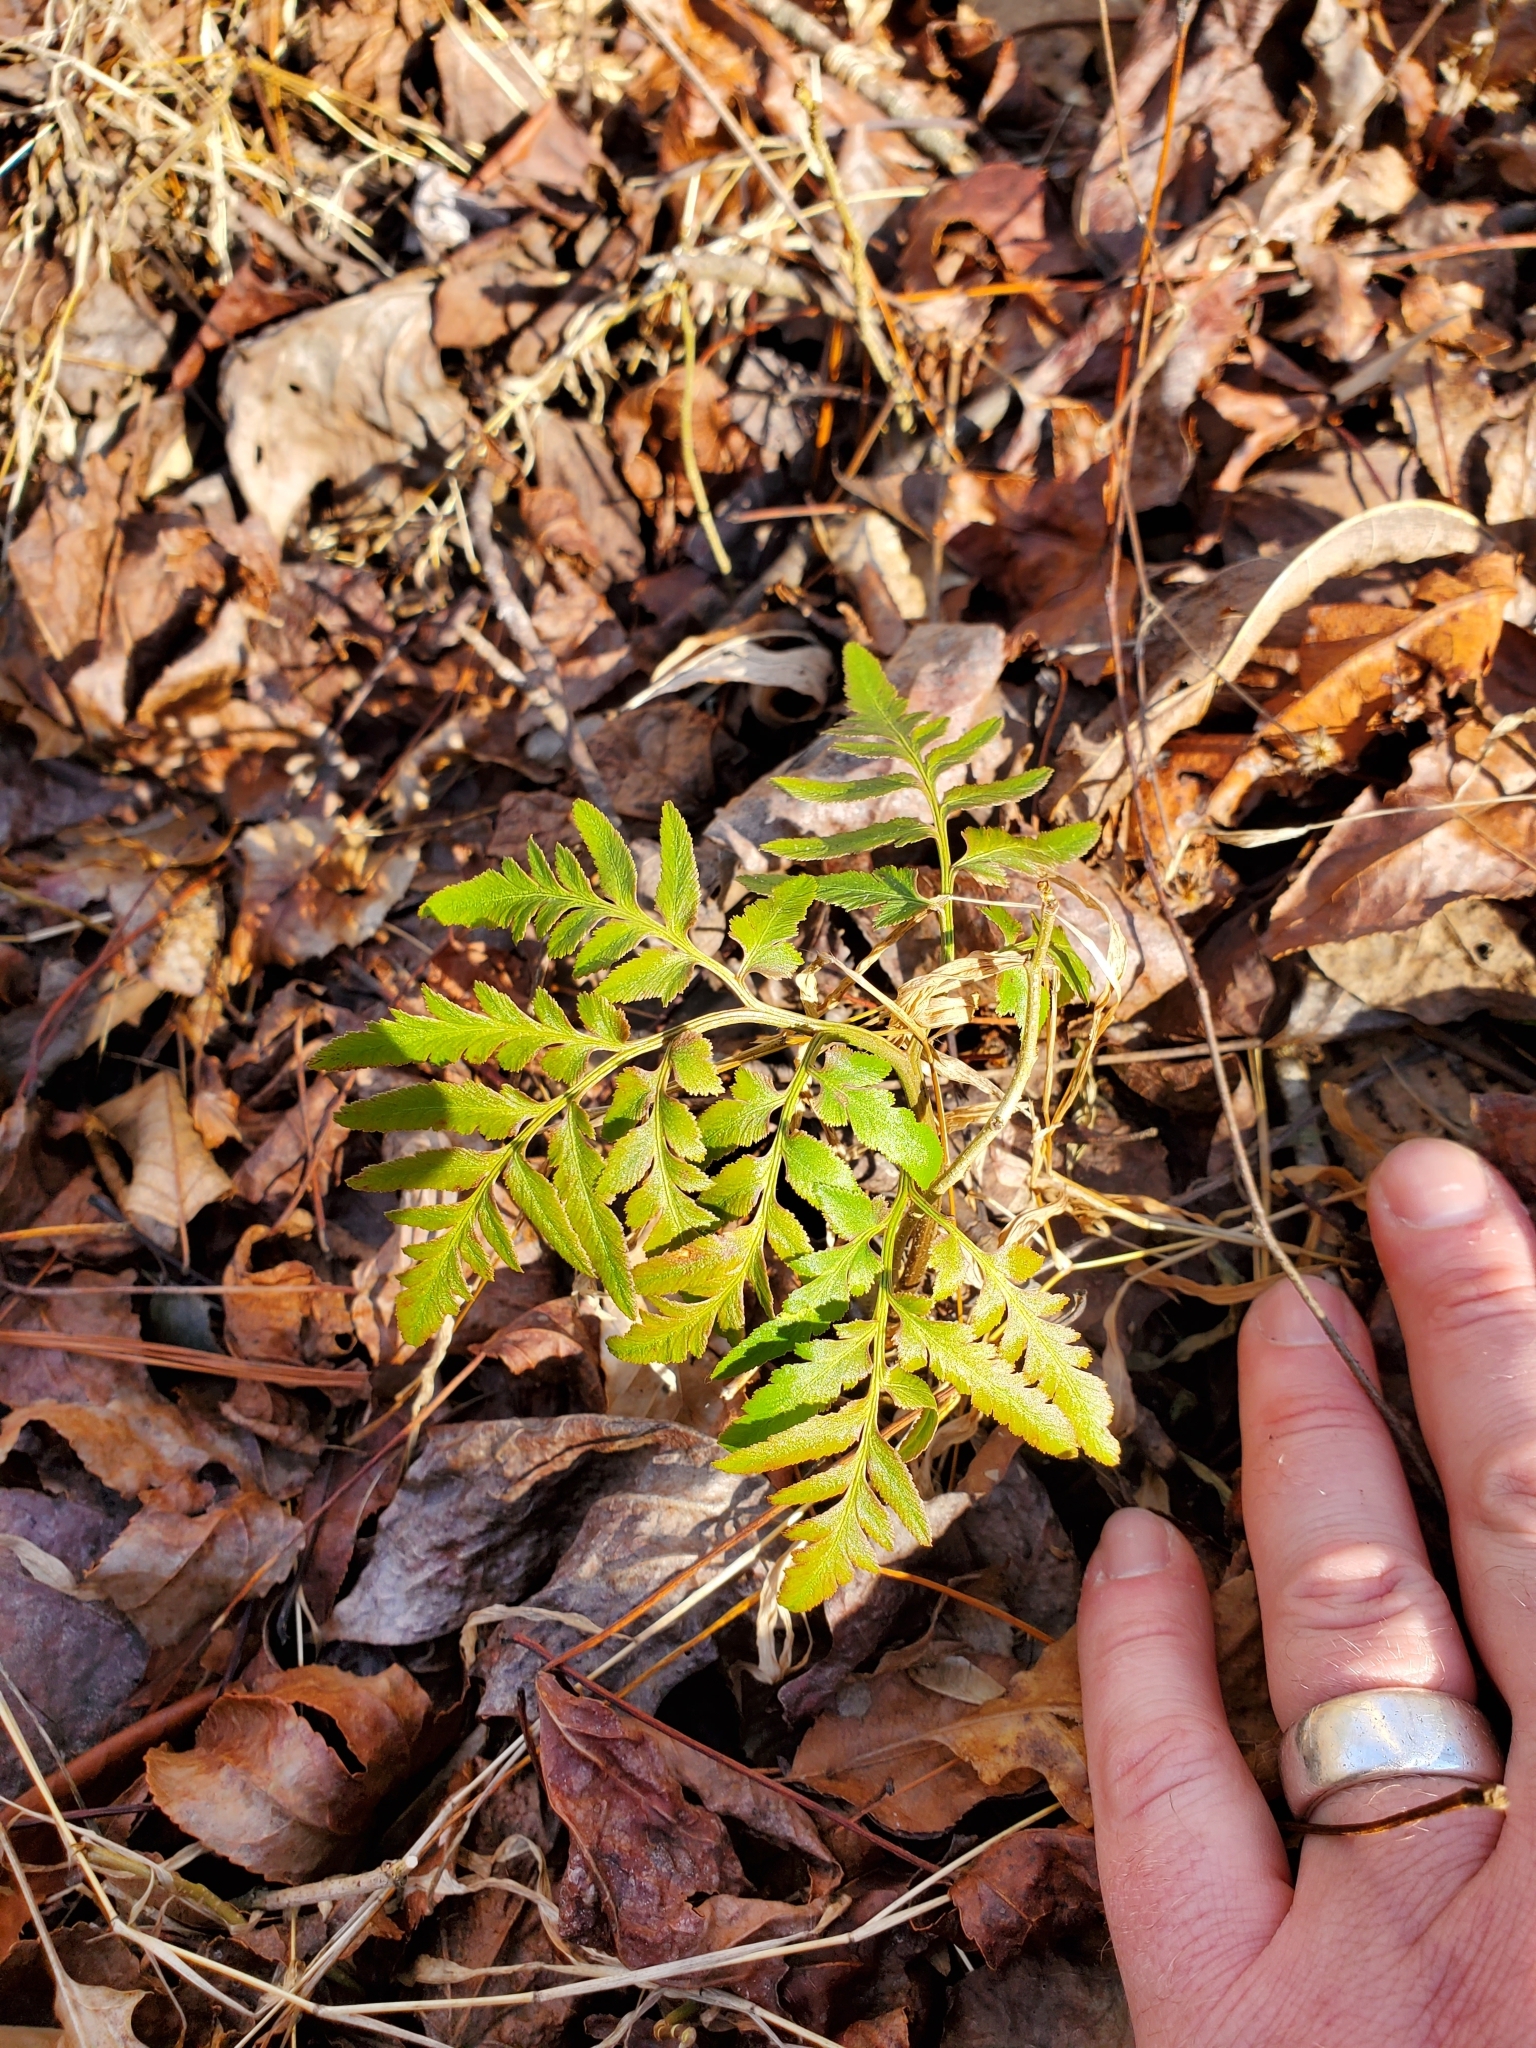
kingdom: Plantae
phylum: Tracheophyta
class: Polypodiopsida
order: Ophioglossales
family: Ophioglossaceae
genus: Sceptridium
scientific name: Sceptridium dissectum
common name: Cut-leaved grapefern
